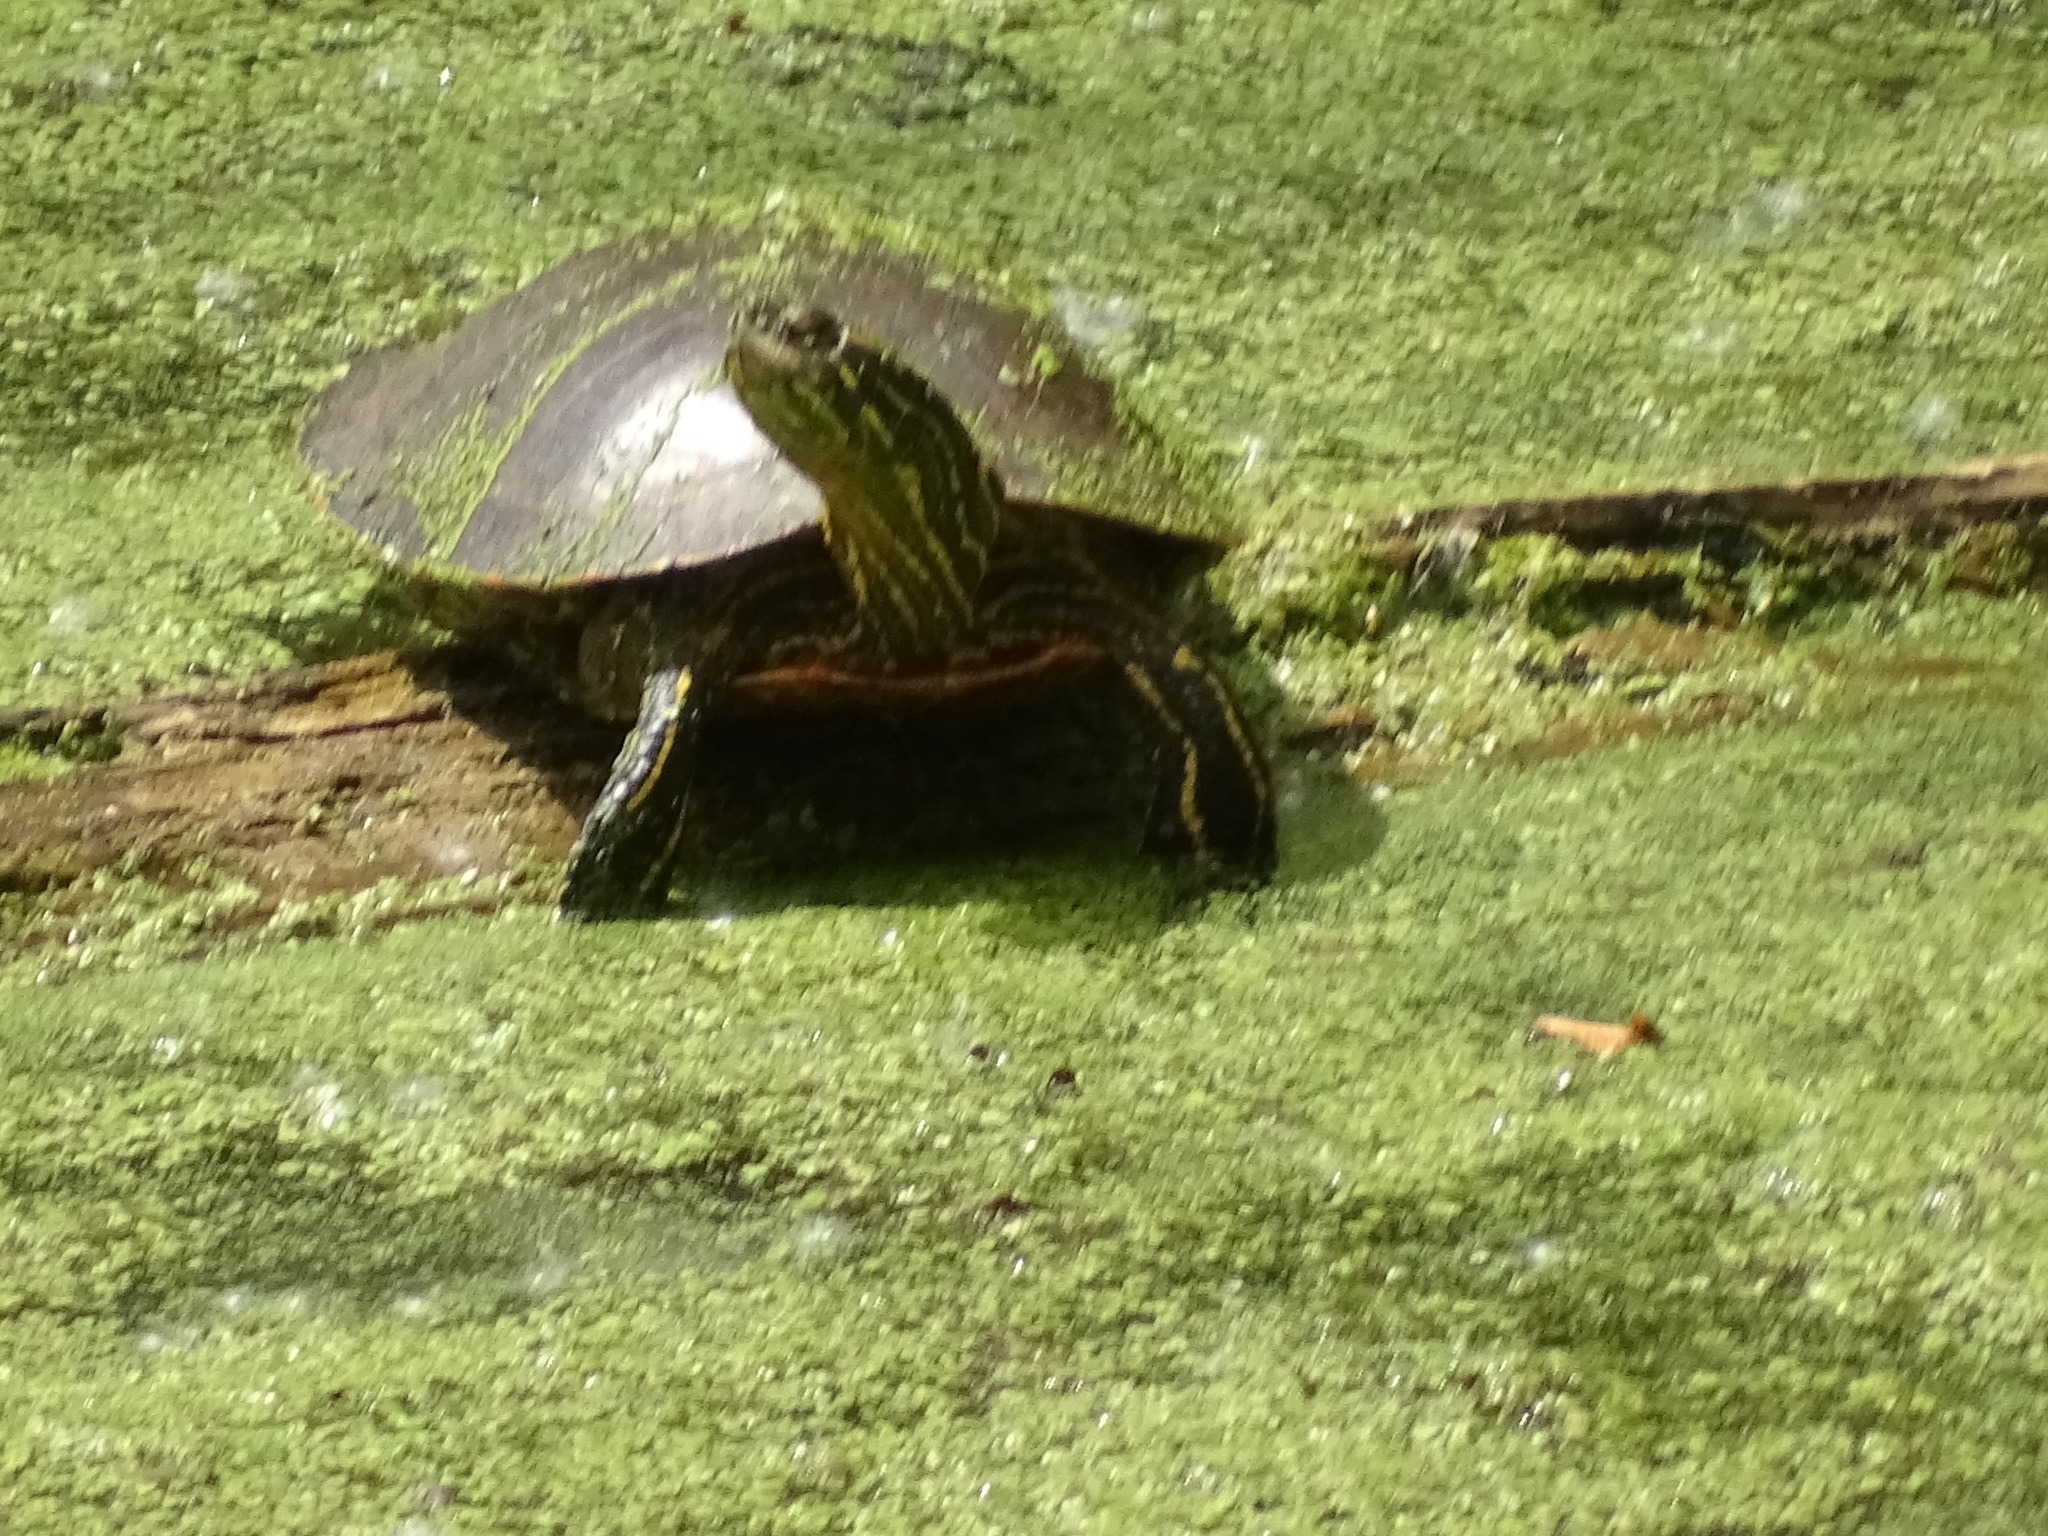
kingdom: Animalia
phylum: Chordata
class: Testudines
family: Emydidae
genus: Chrysemys
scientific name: Chrysemys picta
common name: Painted turtle
